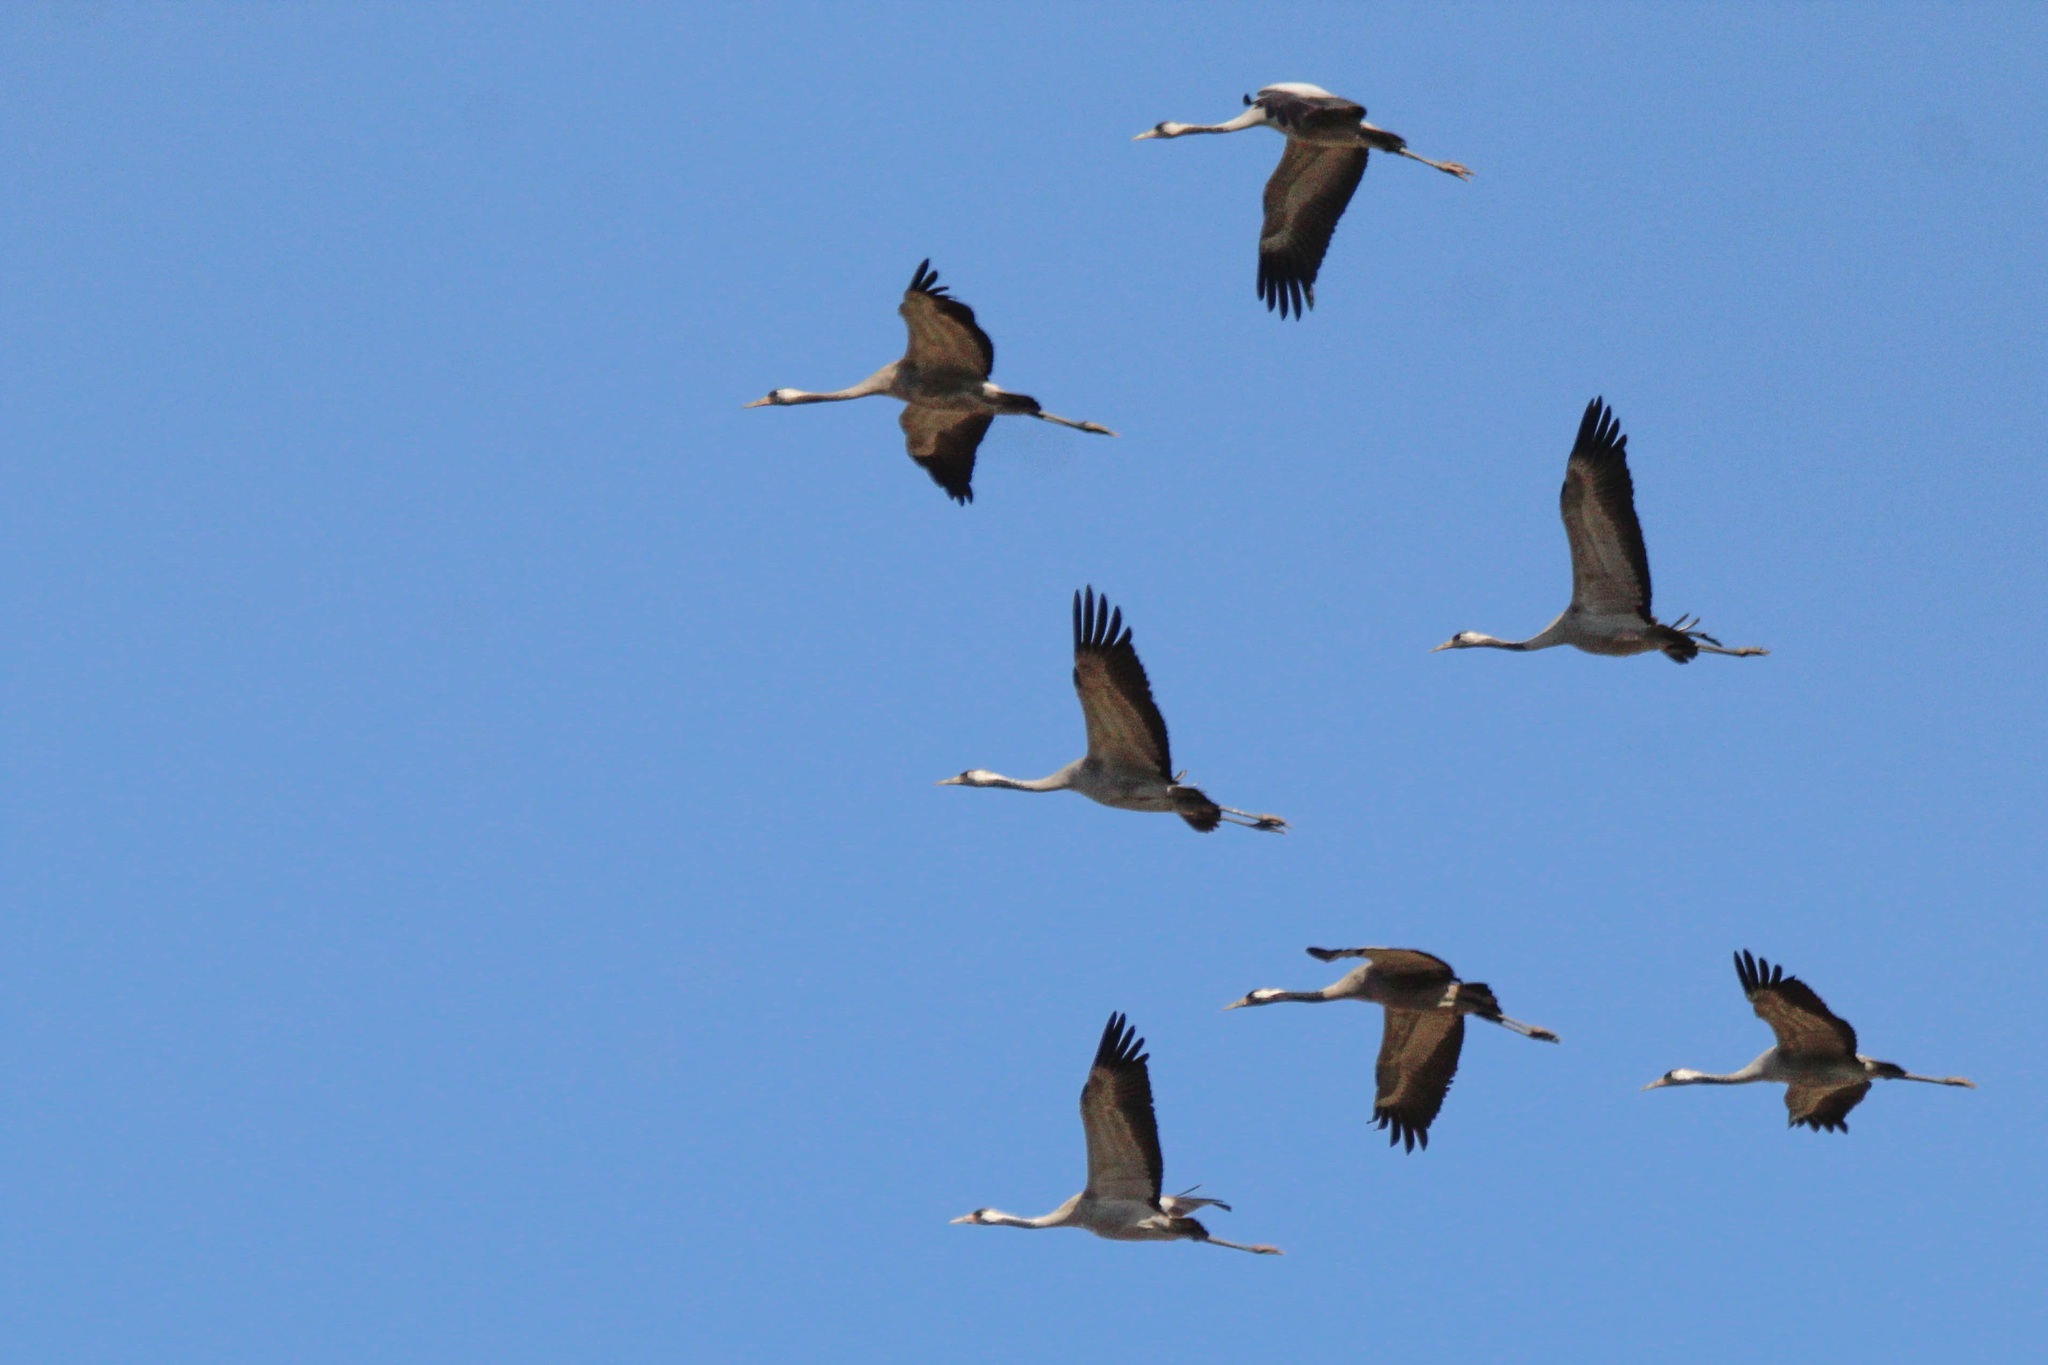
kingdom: Animalia
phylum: Chordata
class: Aves
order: Gruiformes
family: Gruidae
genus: Grus
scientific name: Grus grus
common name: Common crane
